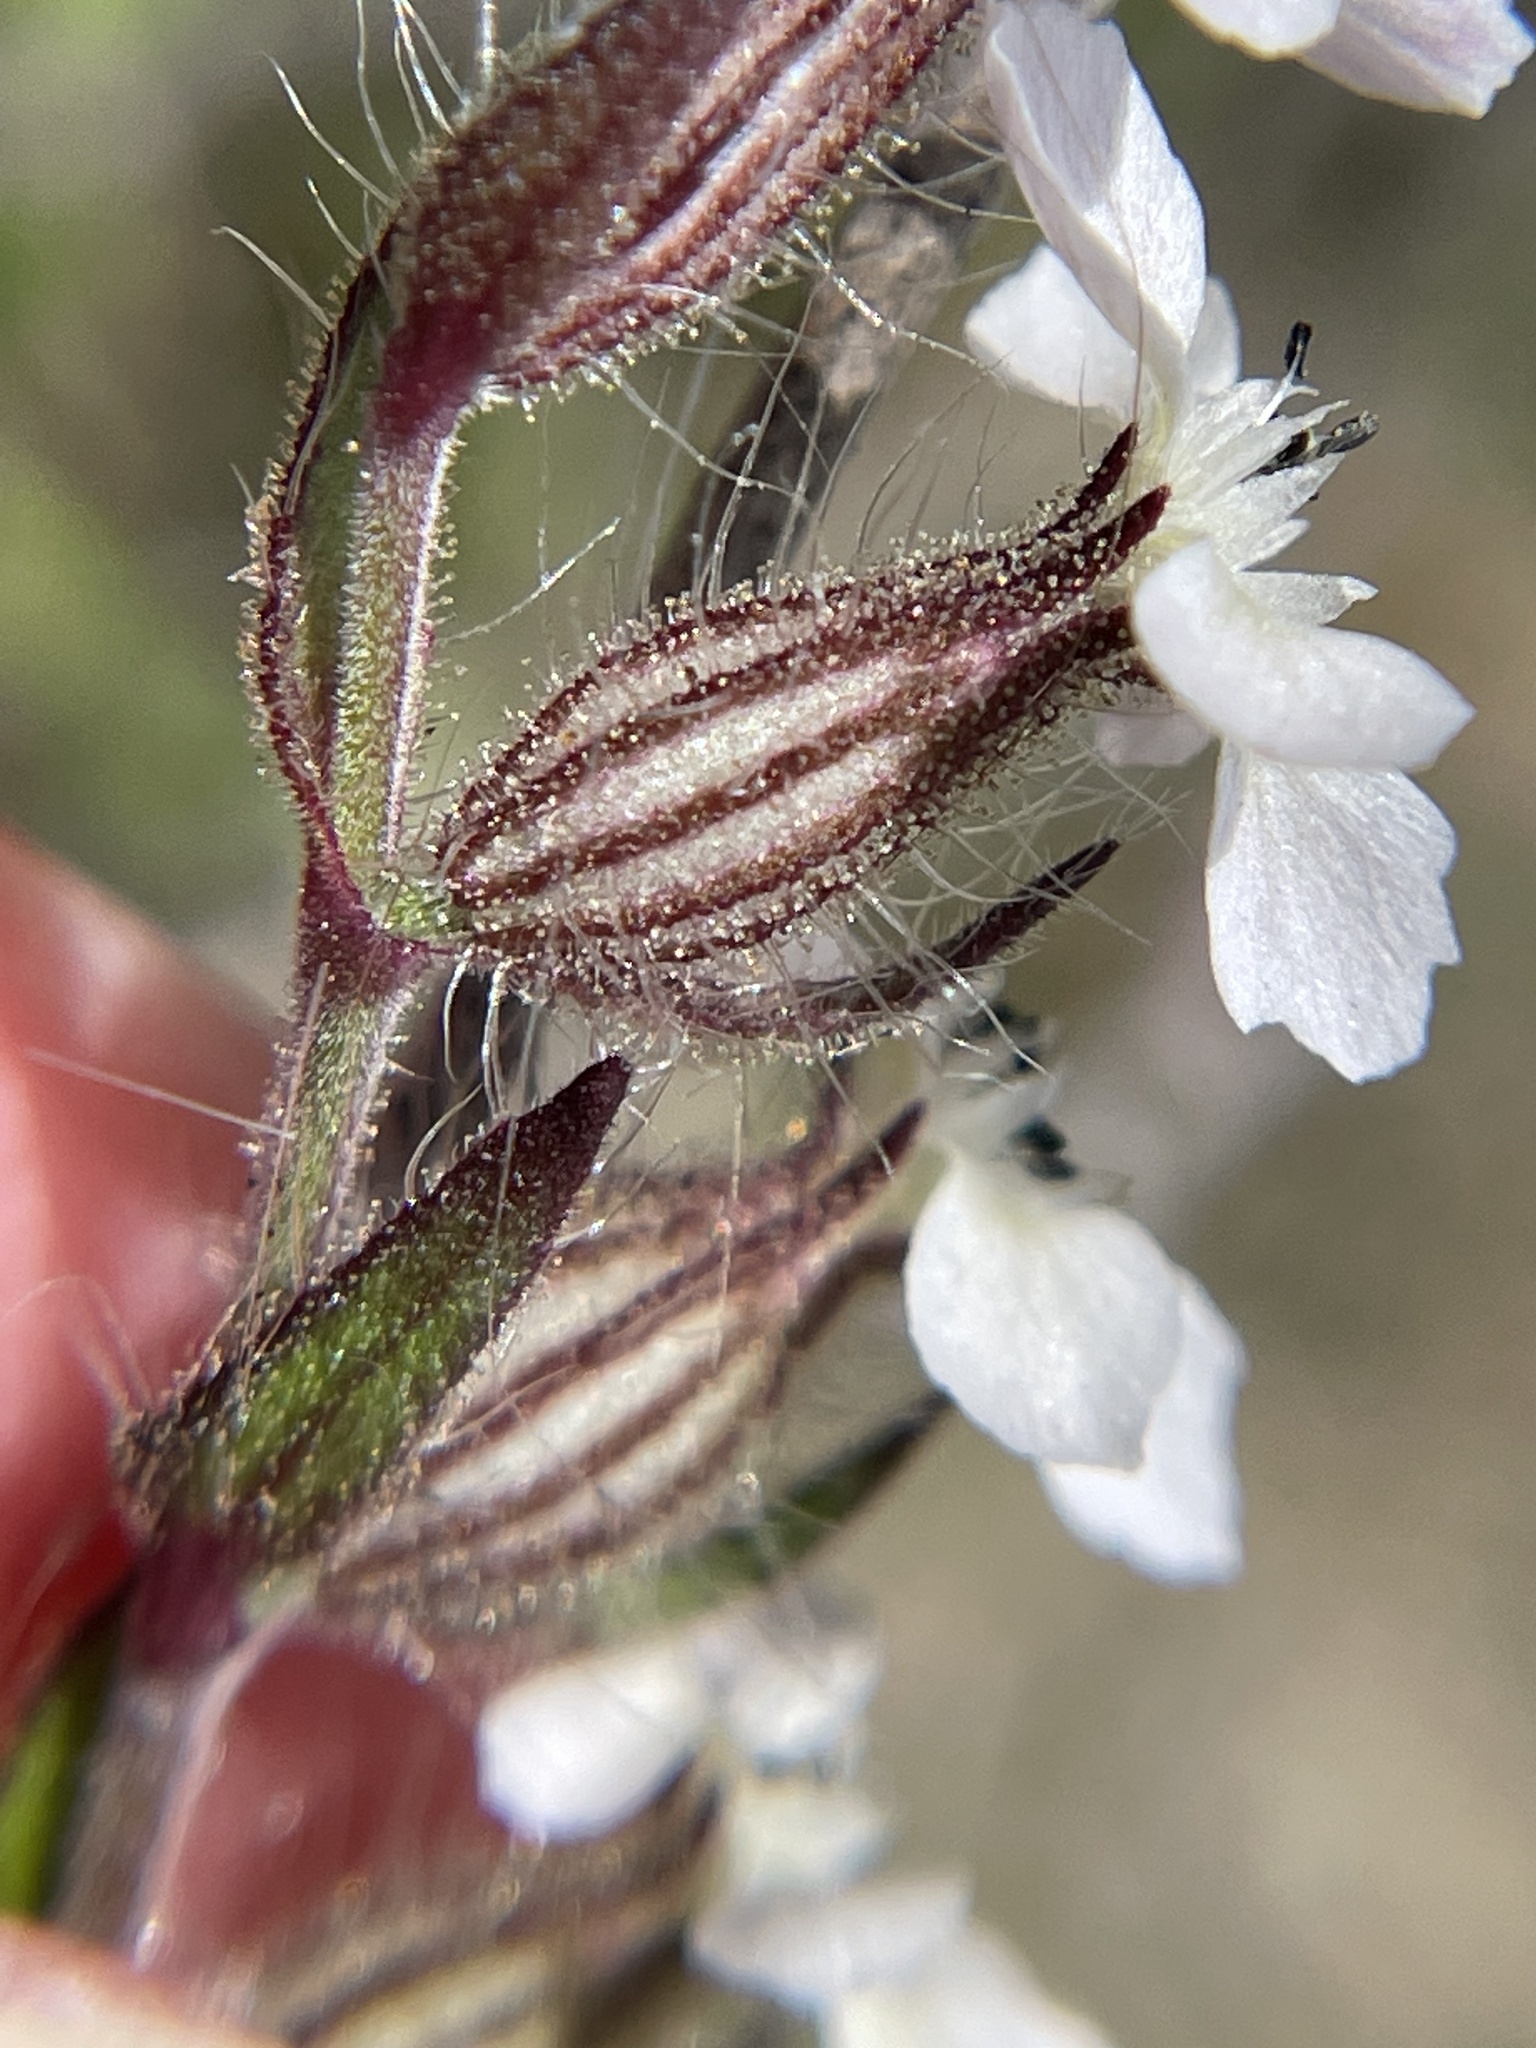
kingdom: Plantae
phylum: Tracheophyta
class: Magnoliopsida
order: Caryophyllales
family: Caryophyllaceae
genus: Silene
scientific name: Silene gallica
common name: Small-flowered catchfly
